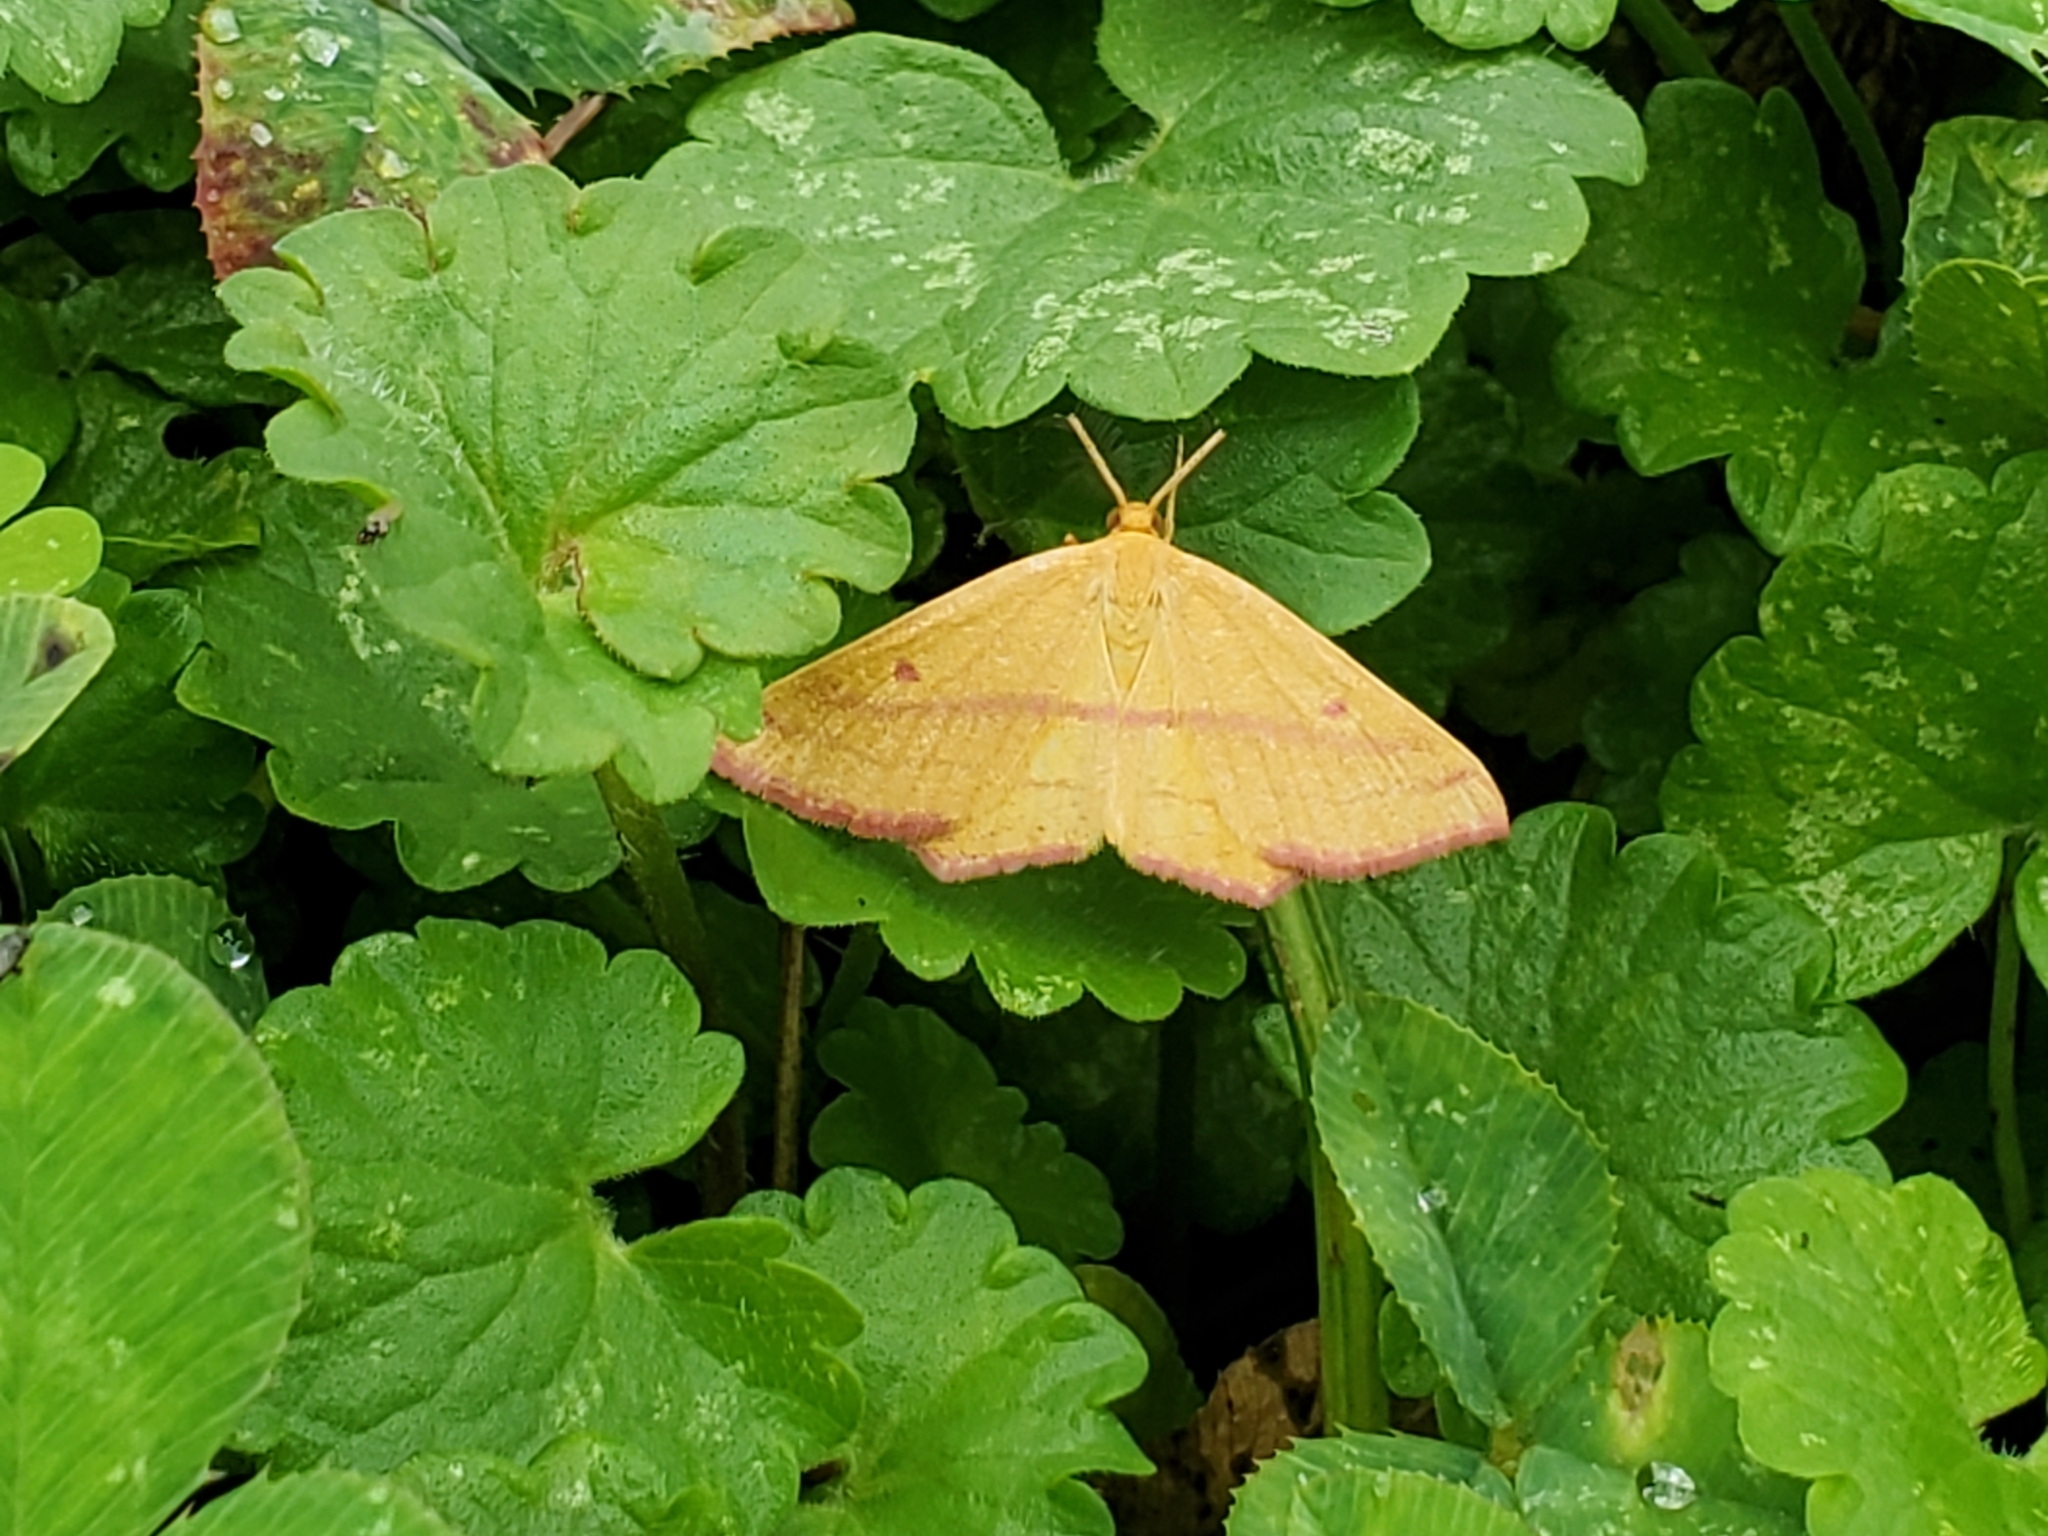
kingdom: Animalia
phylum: Arthropoda
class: Insecta
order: Lepidoptera
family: Geometridae
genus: Haematopis
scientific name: Haematopis grataria
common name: Chickweed geometer
